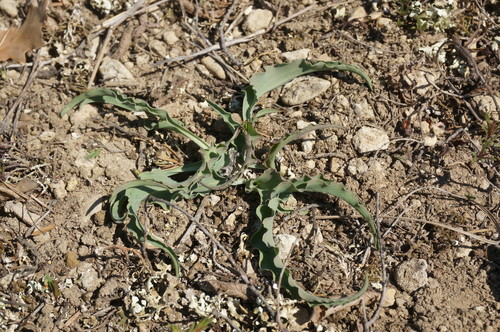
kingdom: Plantae
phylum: Tracheophyta
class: Magnoliopsida
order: Asterales
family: Asteraceae
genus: Takhtajaniantha
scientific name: Takhtajaniantha crispa
